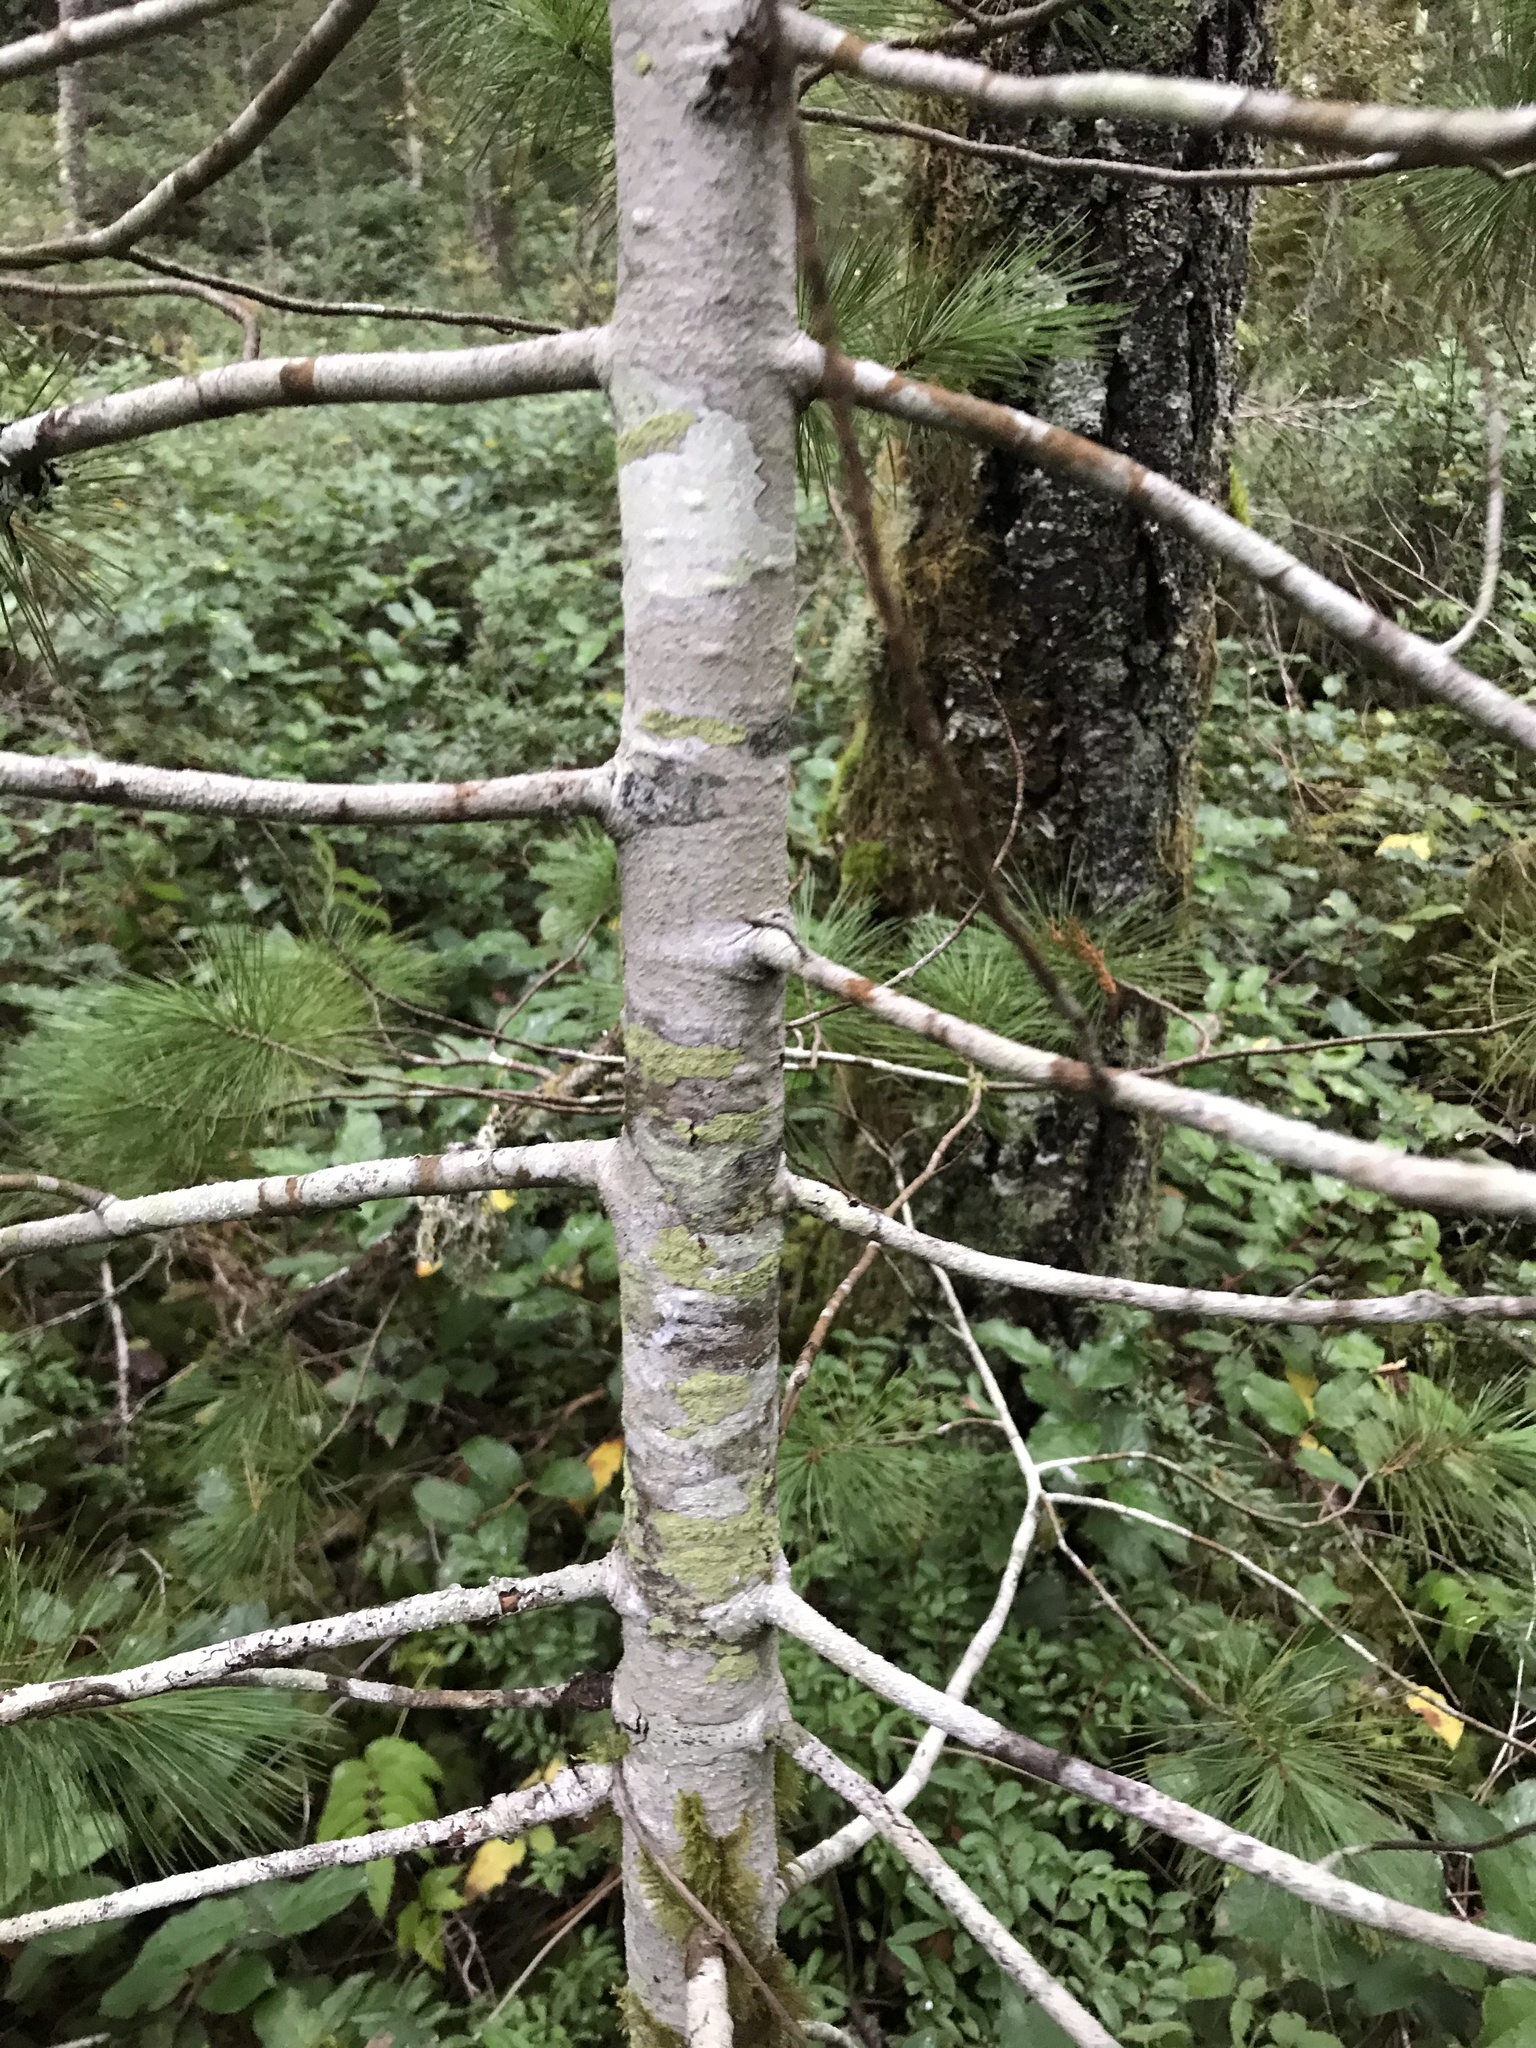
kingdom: Plantae
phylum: Tracheophyta
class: Pinopsida
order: Pinales
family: Pinaceae
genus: Pinus
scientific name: Pinus monticola
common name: Western white pine
